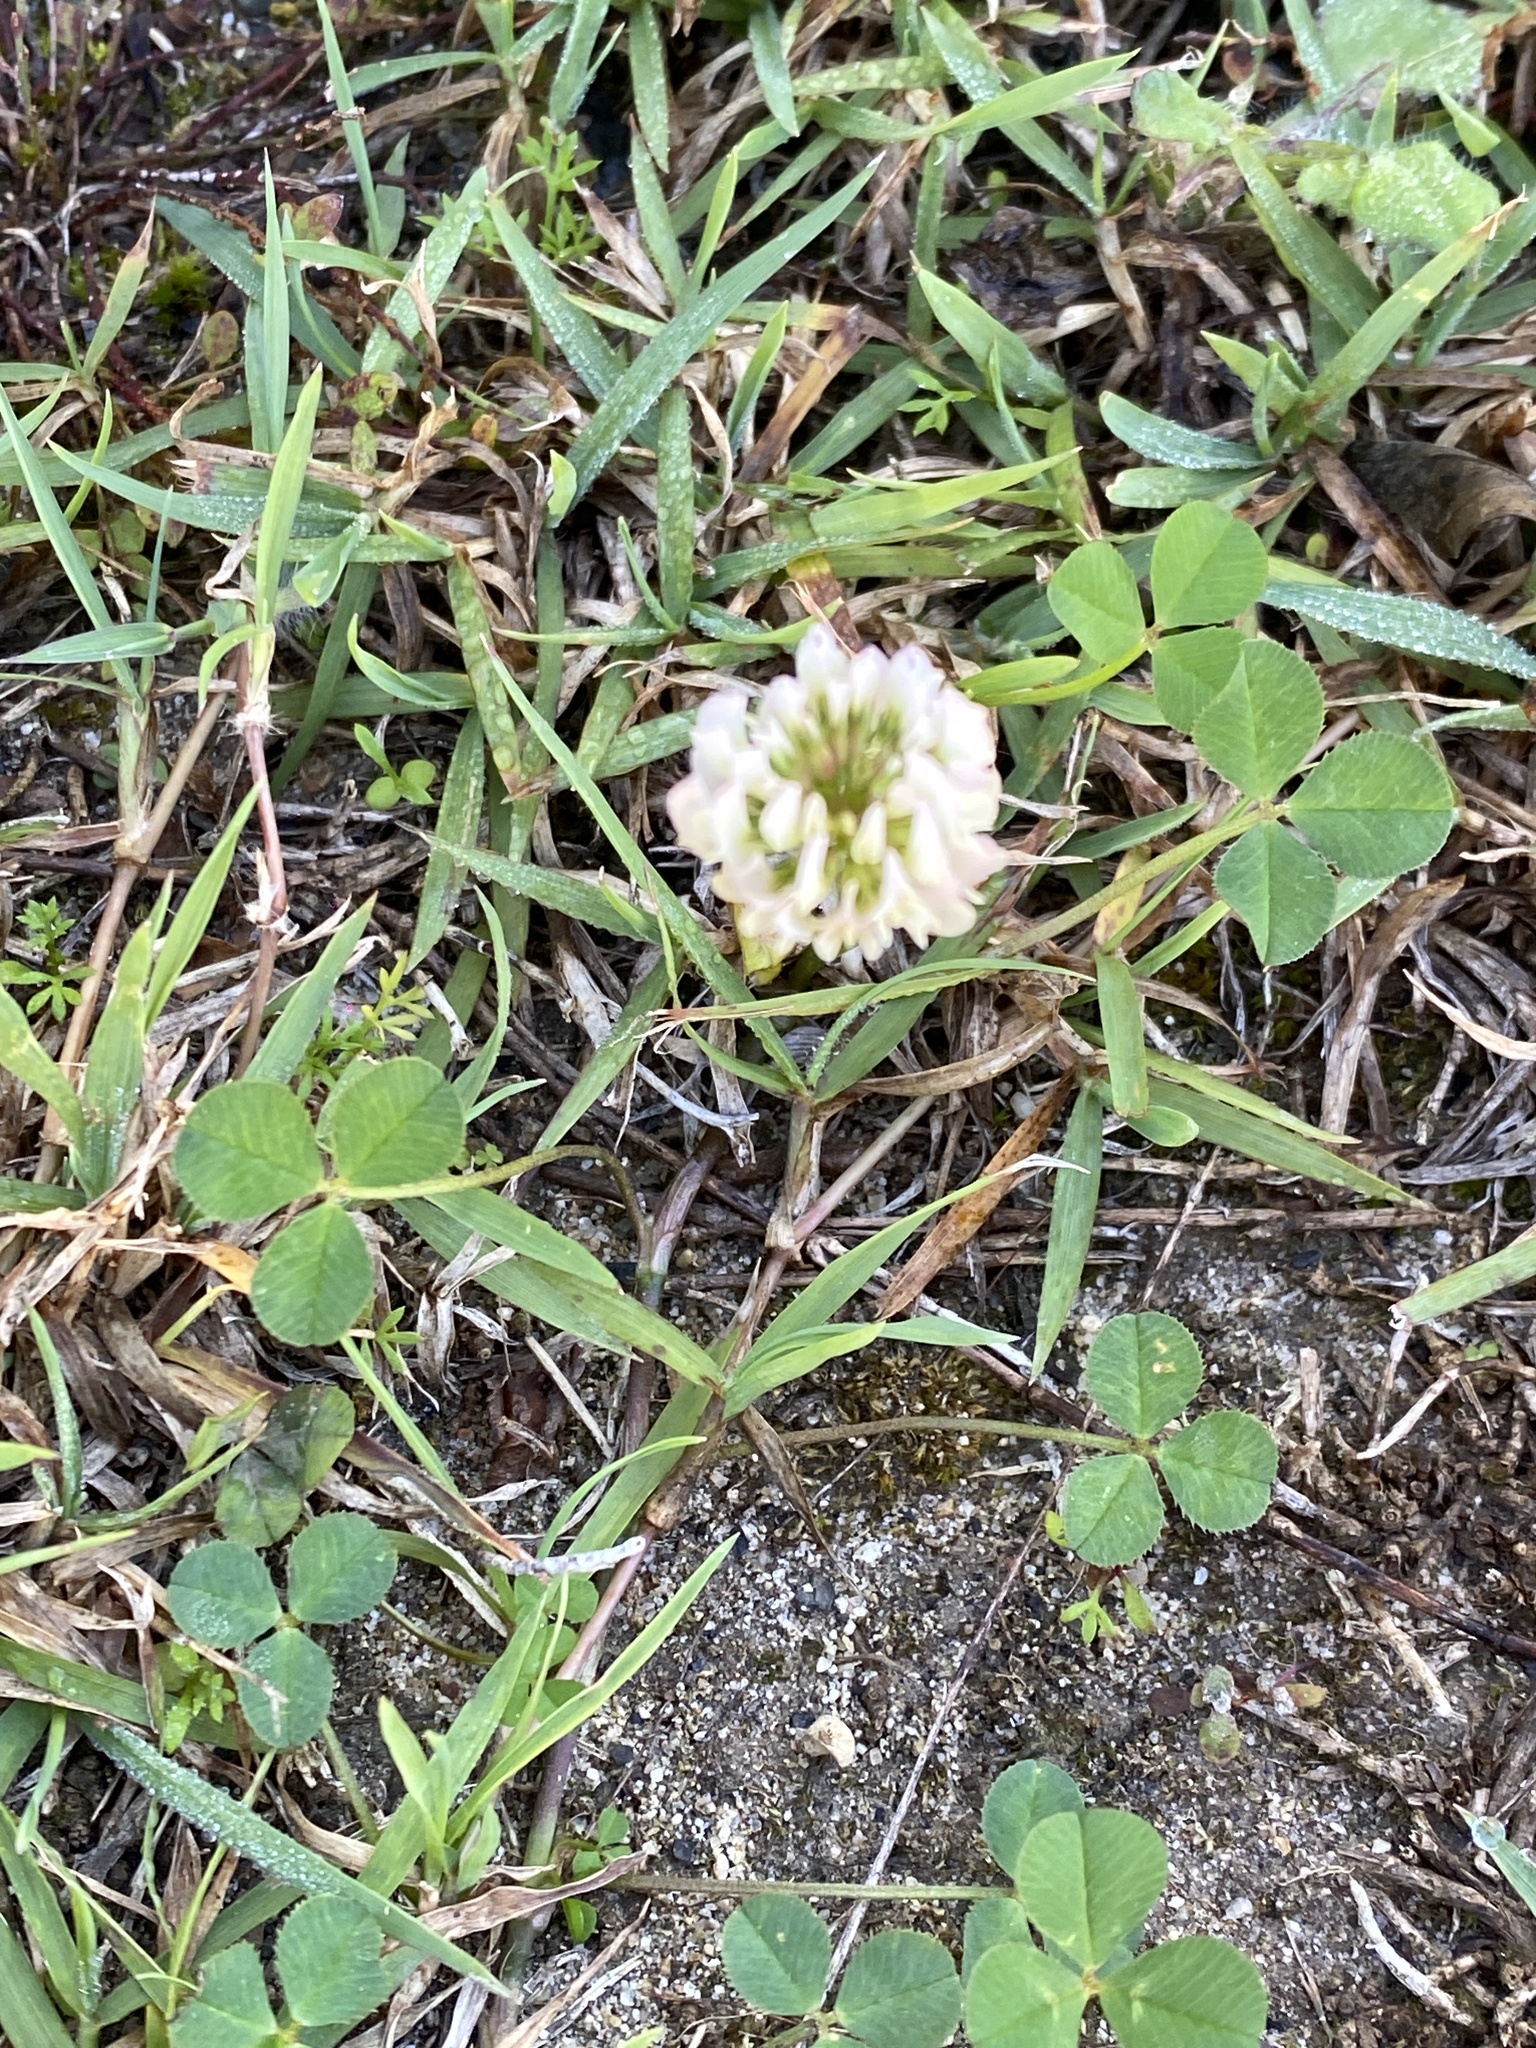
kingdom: Plantae
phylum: Tracheophyta
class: Magnoliopsida
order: Fabales
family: Fabaceae
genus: Trifolium
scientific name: Trifolium repens
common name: White clover
